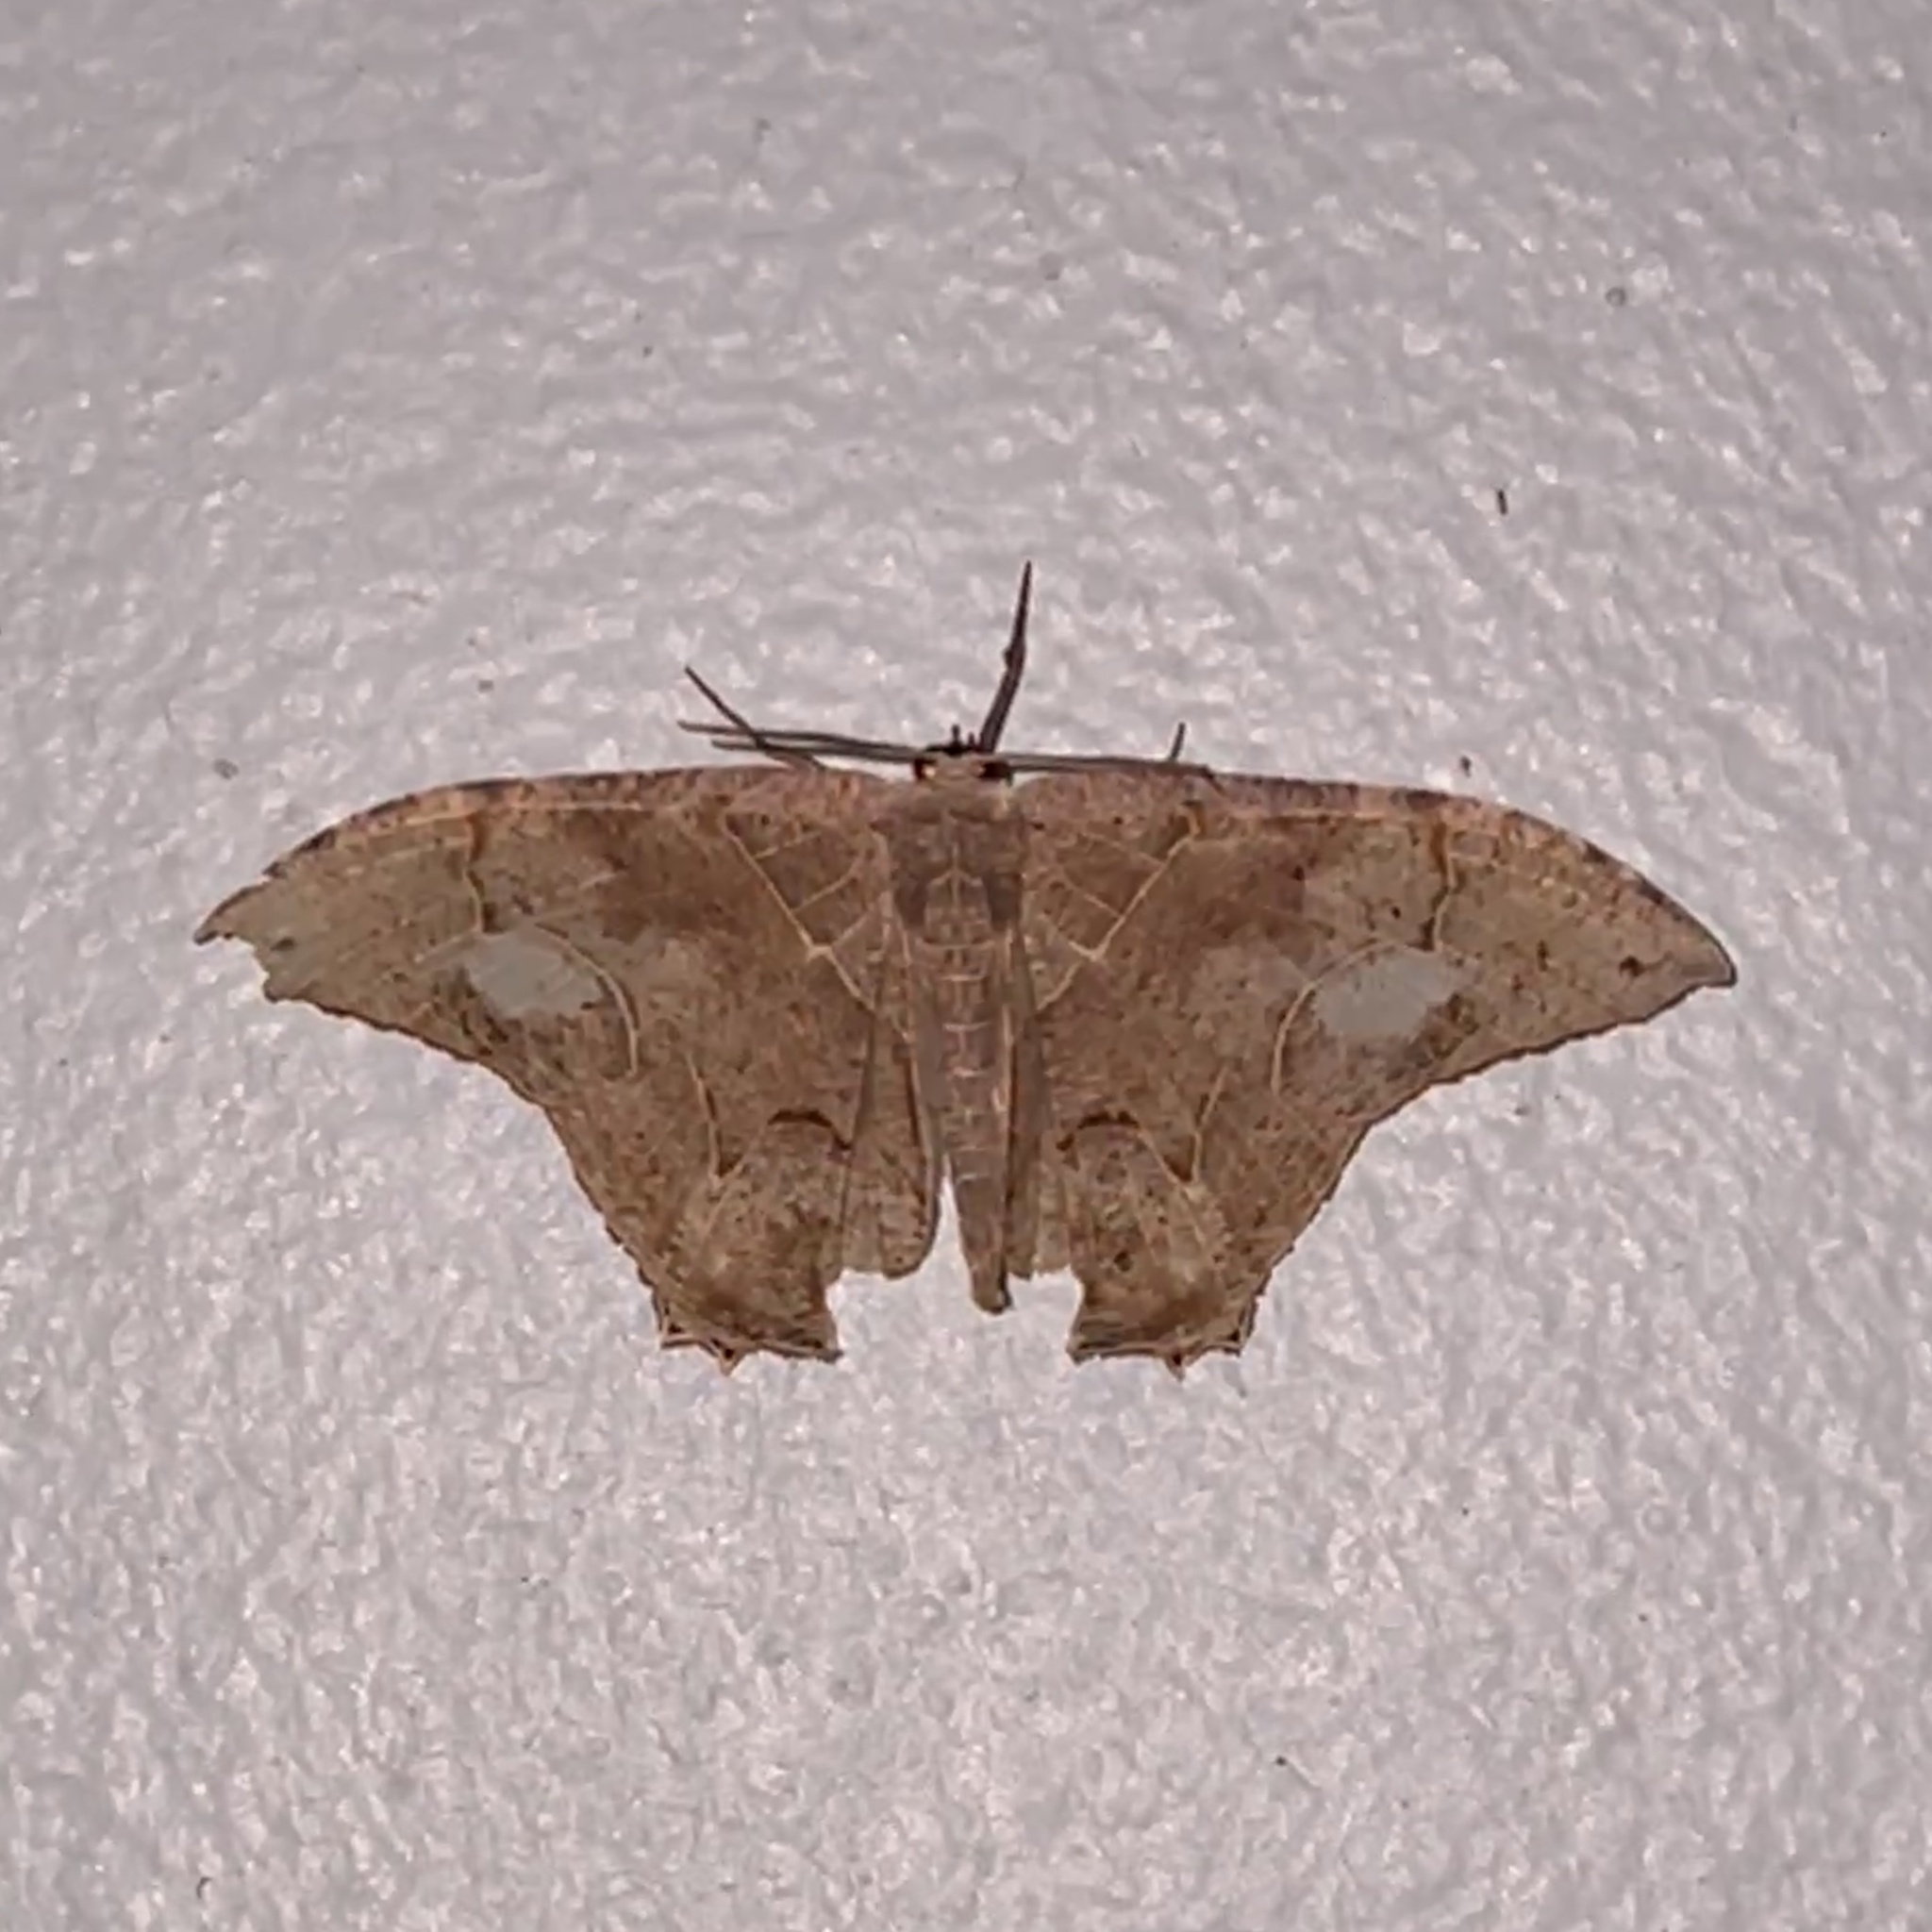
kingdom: Animalia
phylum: Arthropoda
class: Insecta
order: Lepidoptera
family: Uraniidae
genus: Syngria
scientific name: Syngria druidaria
